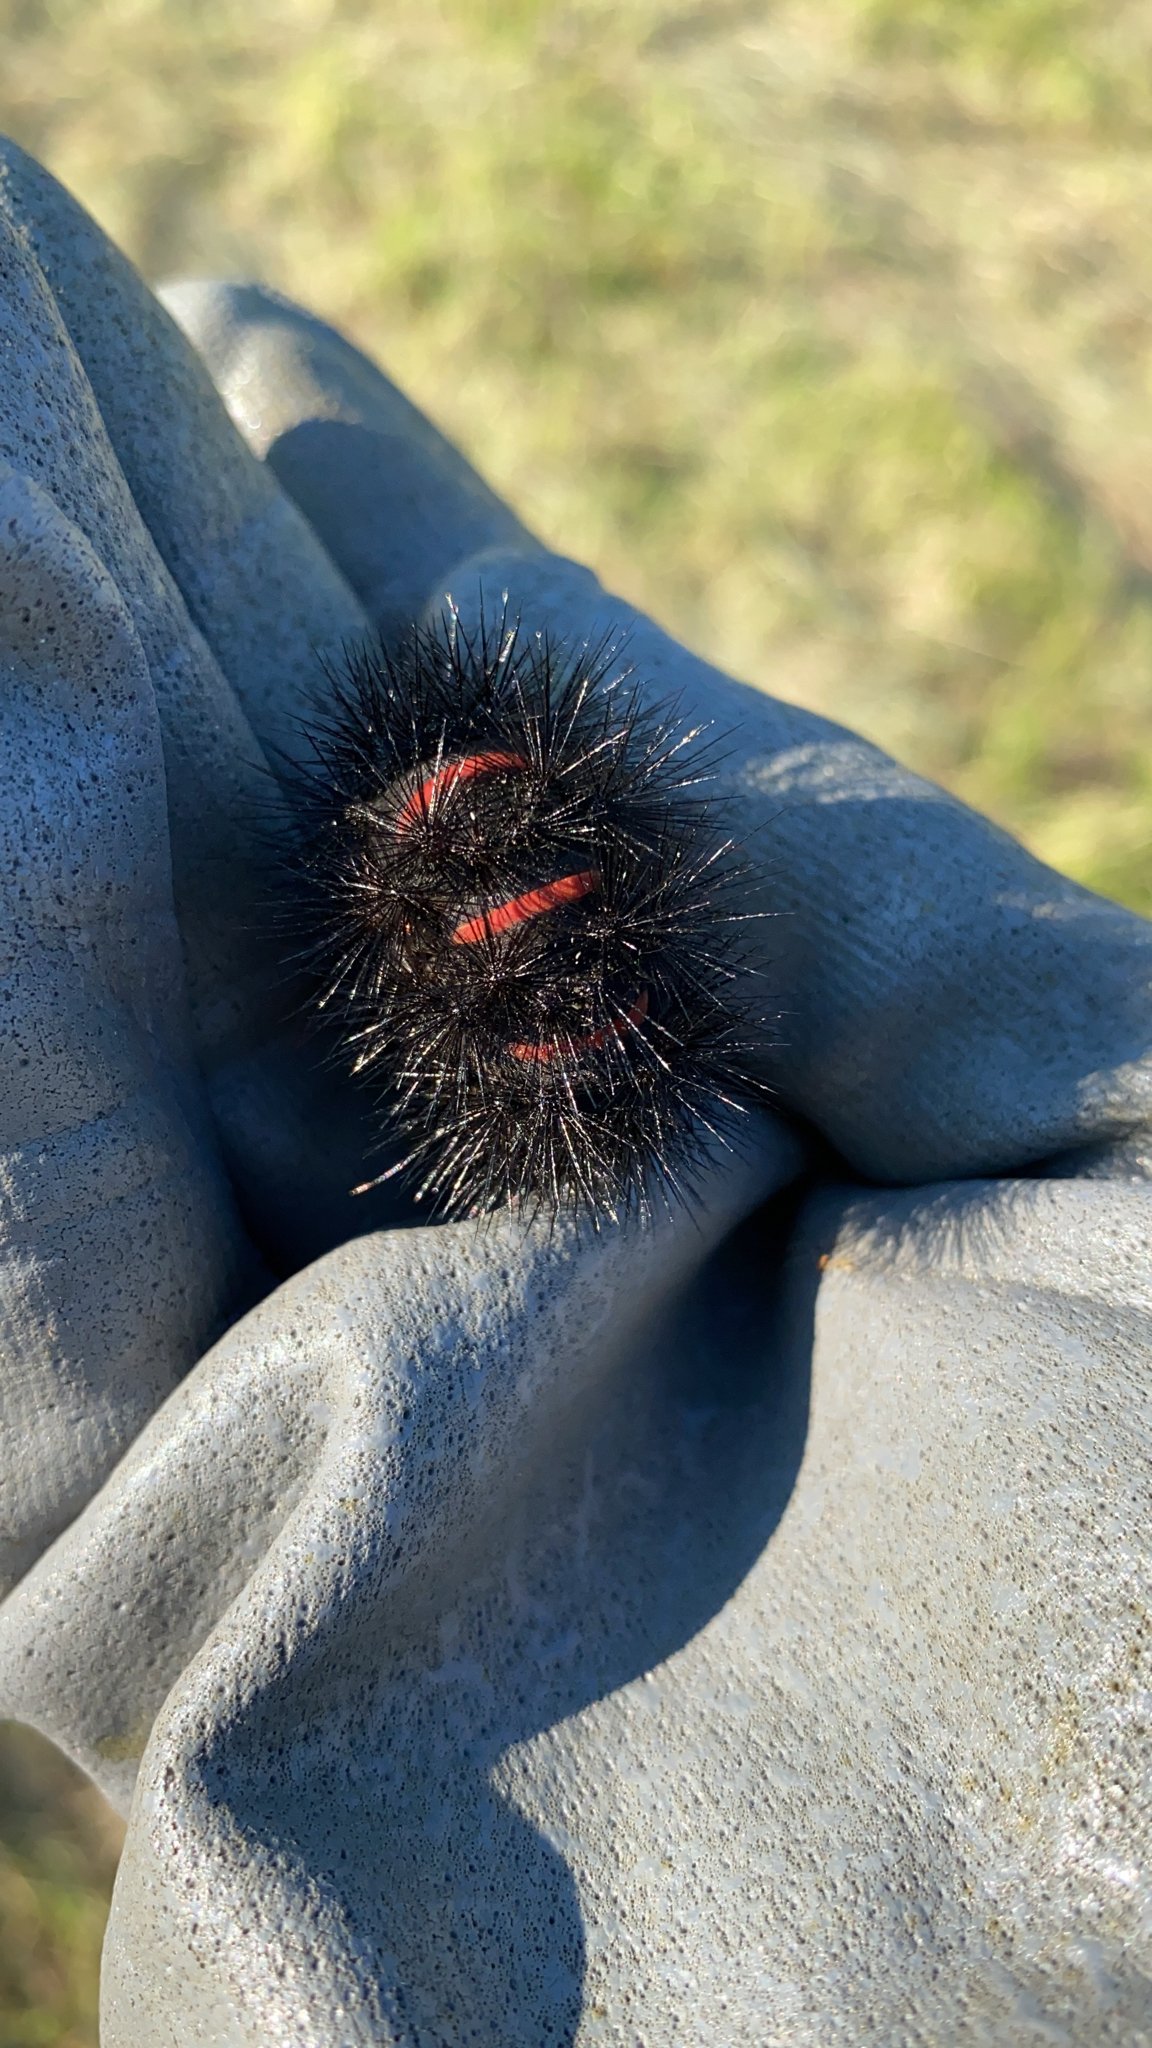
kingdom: Animalia
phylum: Arthropoda
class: Insecta
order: Lepidoptera
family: Erebidae
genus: Hypercompe
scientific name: Hypercompe scribonia
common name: Giant leopard moth
